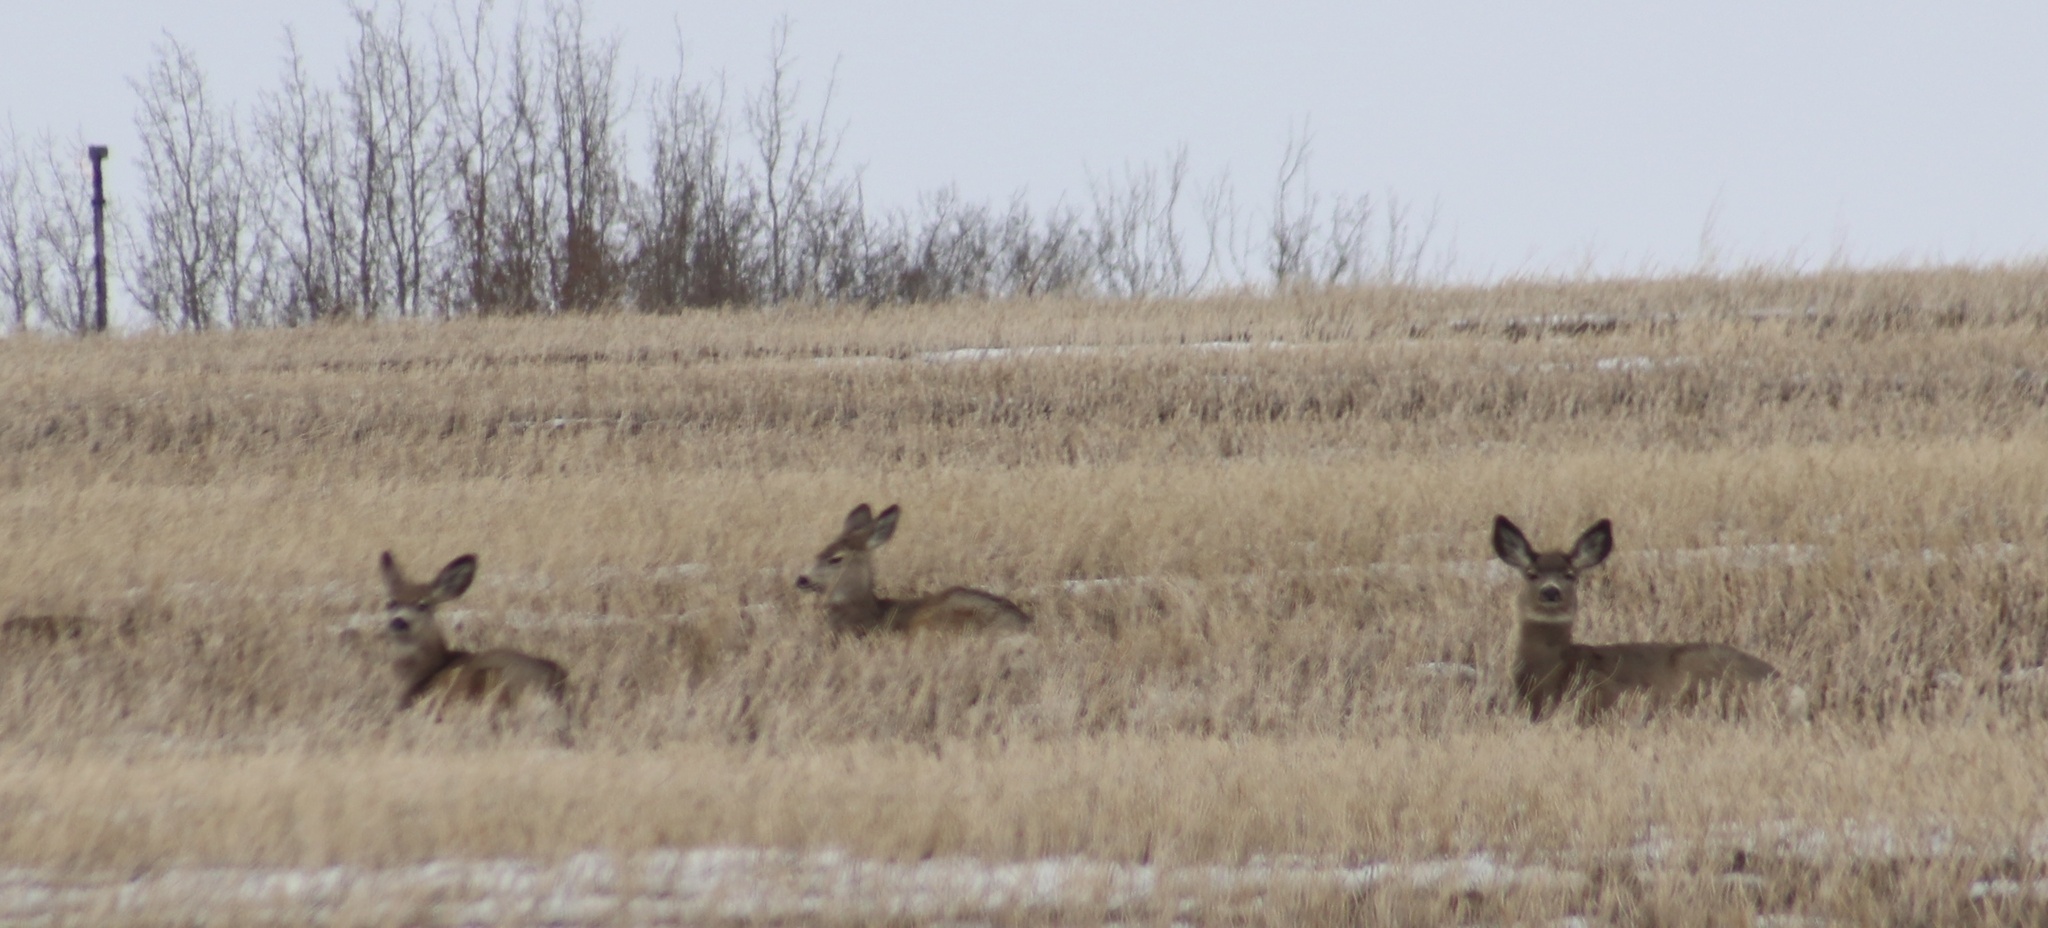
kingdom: Animalia
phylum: Chordata
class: Mammalia
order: Artiodactyla
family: Cervidae
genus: Odocoileus
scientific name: Odocoileus hemionus
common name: Mule deer
